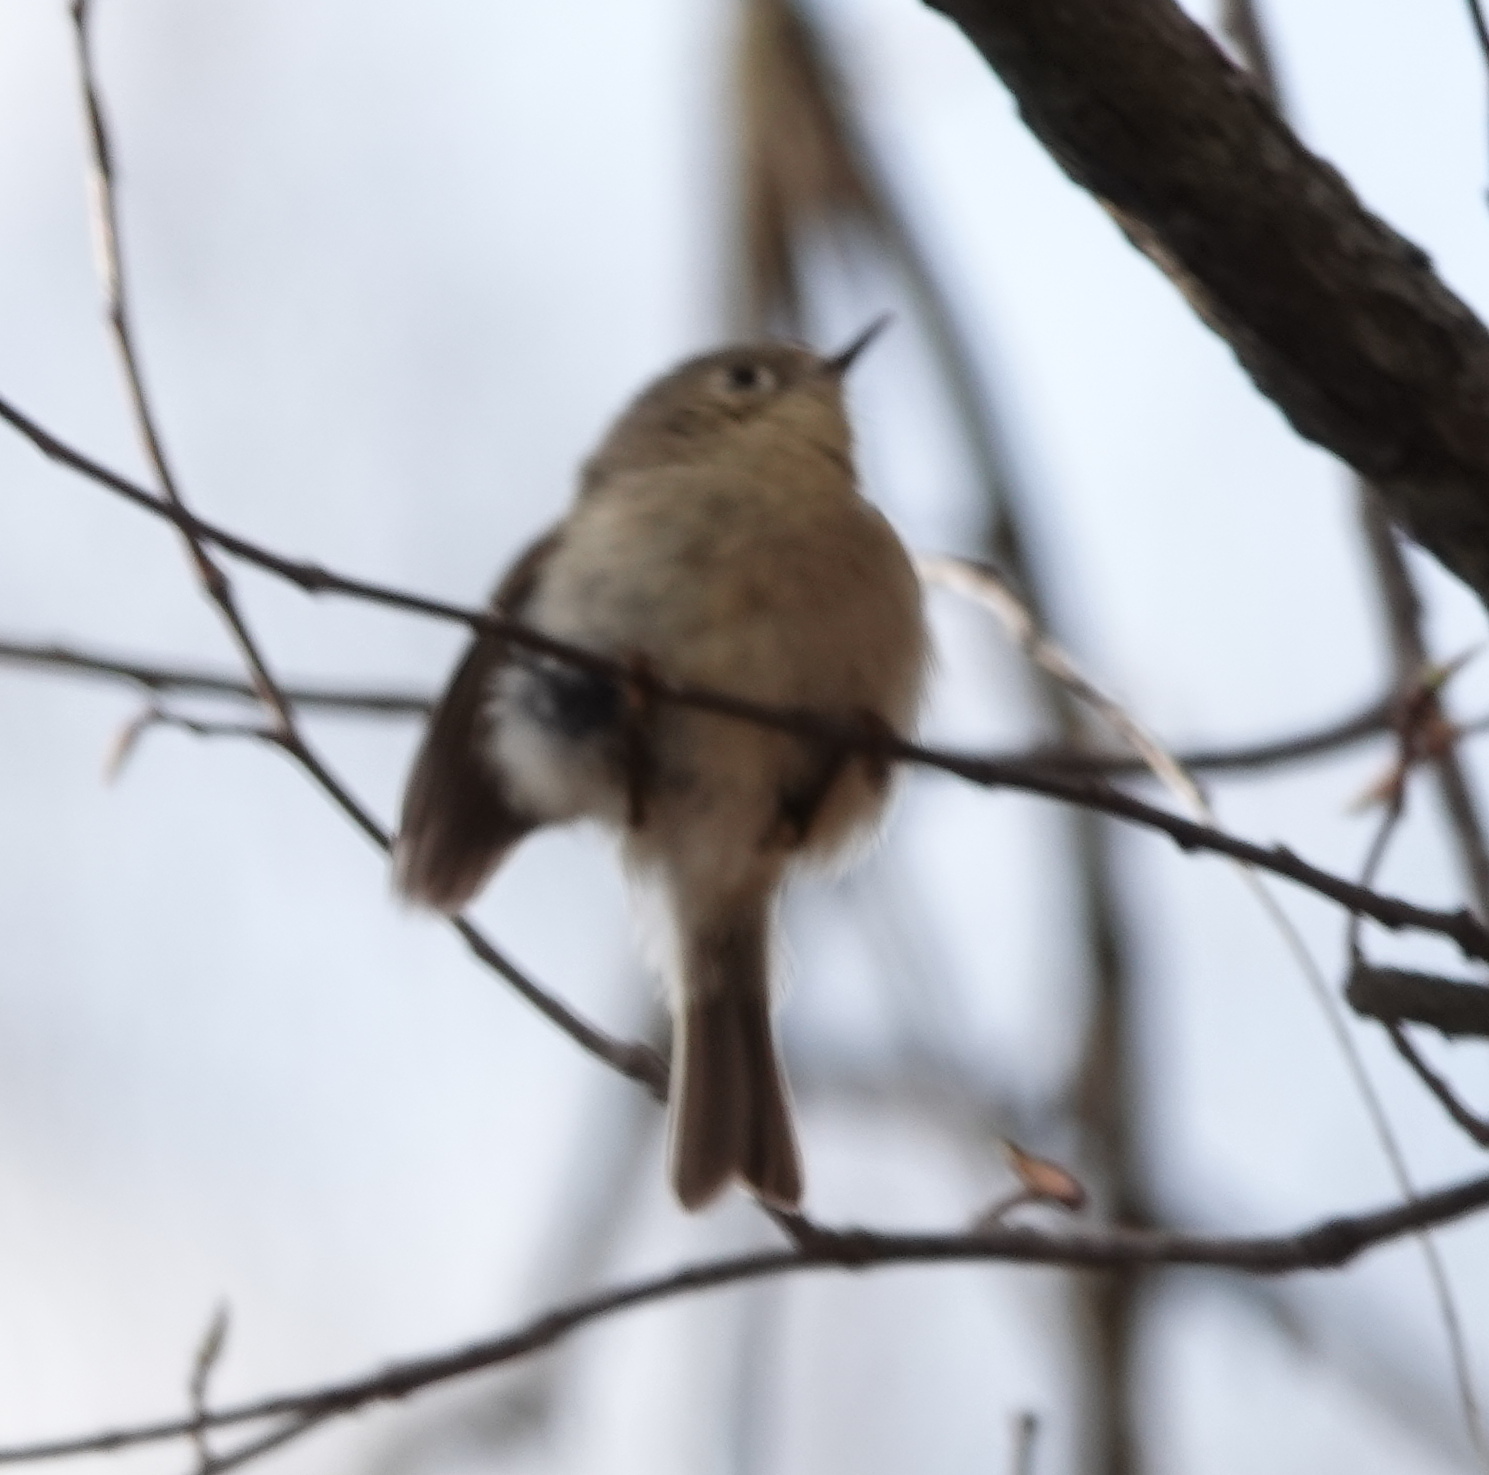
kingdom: Animalia
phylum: Chordata
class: Aves
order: Passeriformes
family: Regulidae
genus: Regulus
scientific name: Regulus calendula
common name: Ruby-crowned kinglet
